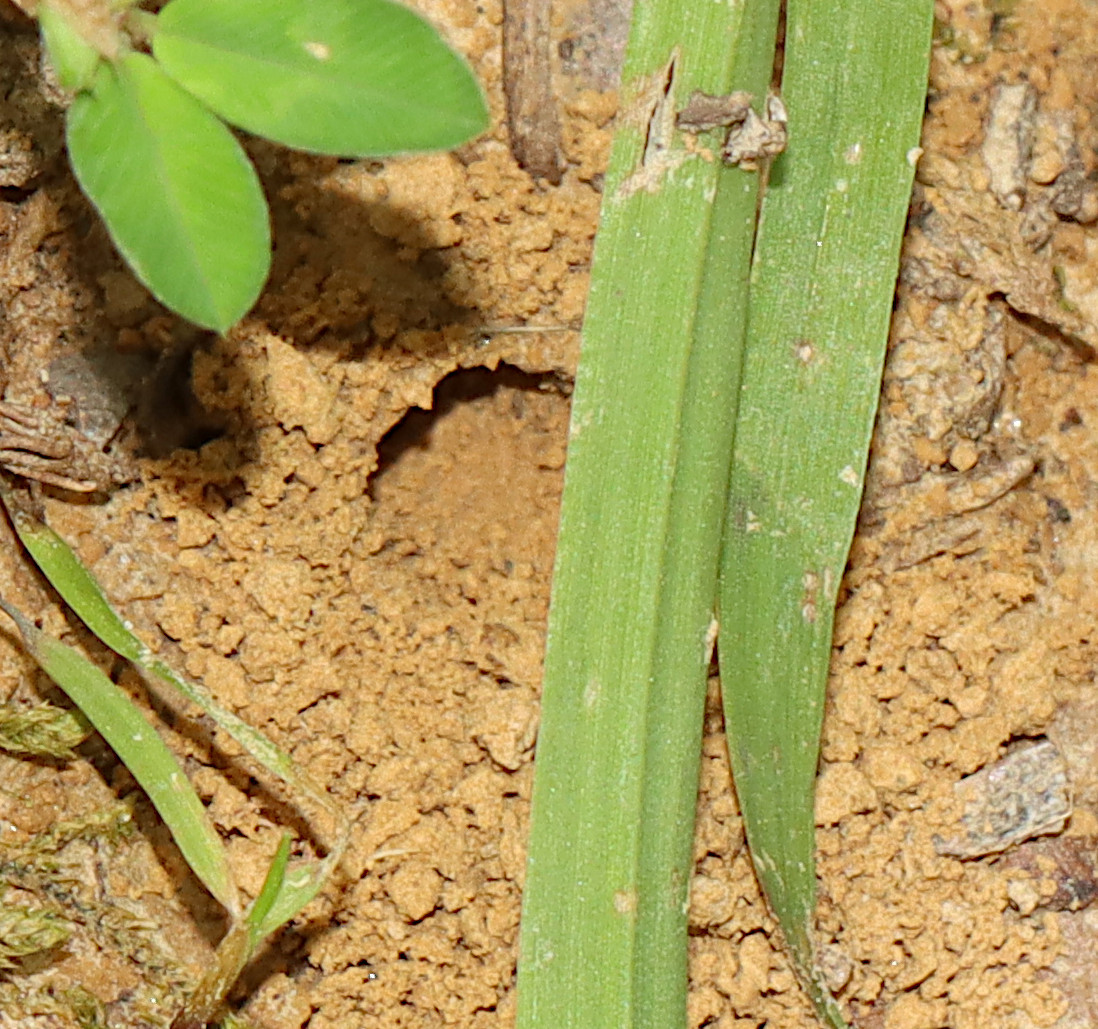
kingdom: Animalia
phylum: Arthropoda
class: Insecta
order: Hymenoptera
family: Crabronidae
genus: Philanthus
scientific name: Philanthus gibbosus
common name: Humped beewolf
